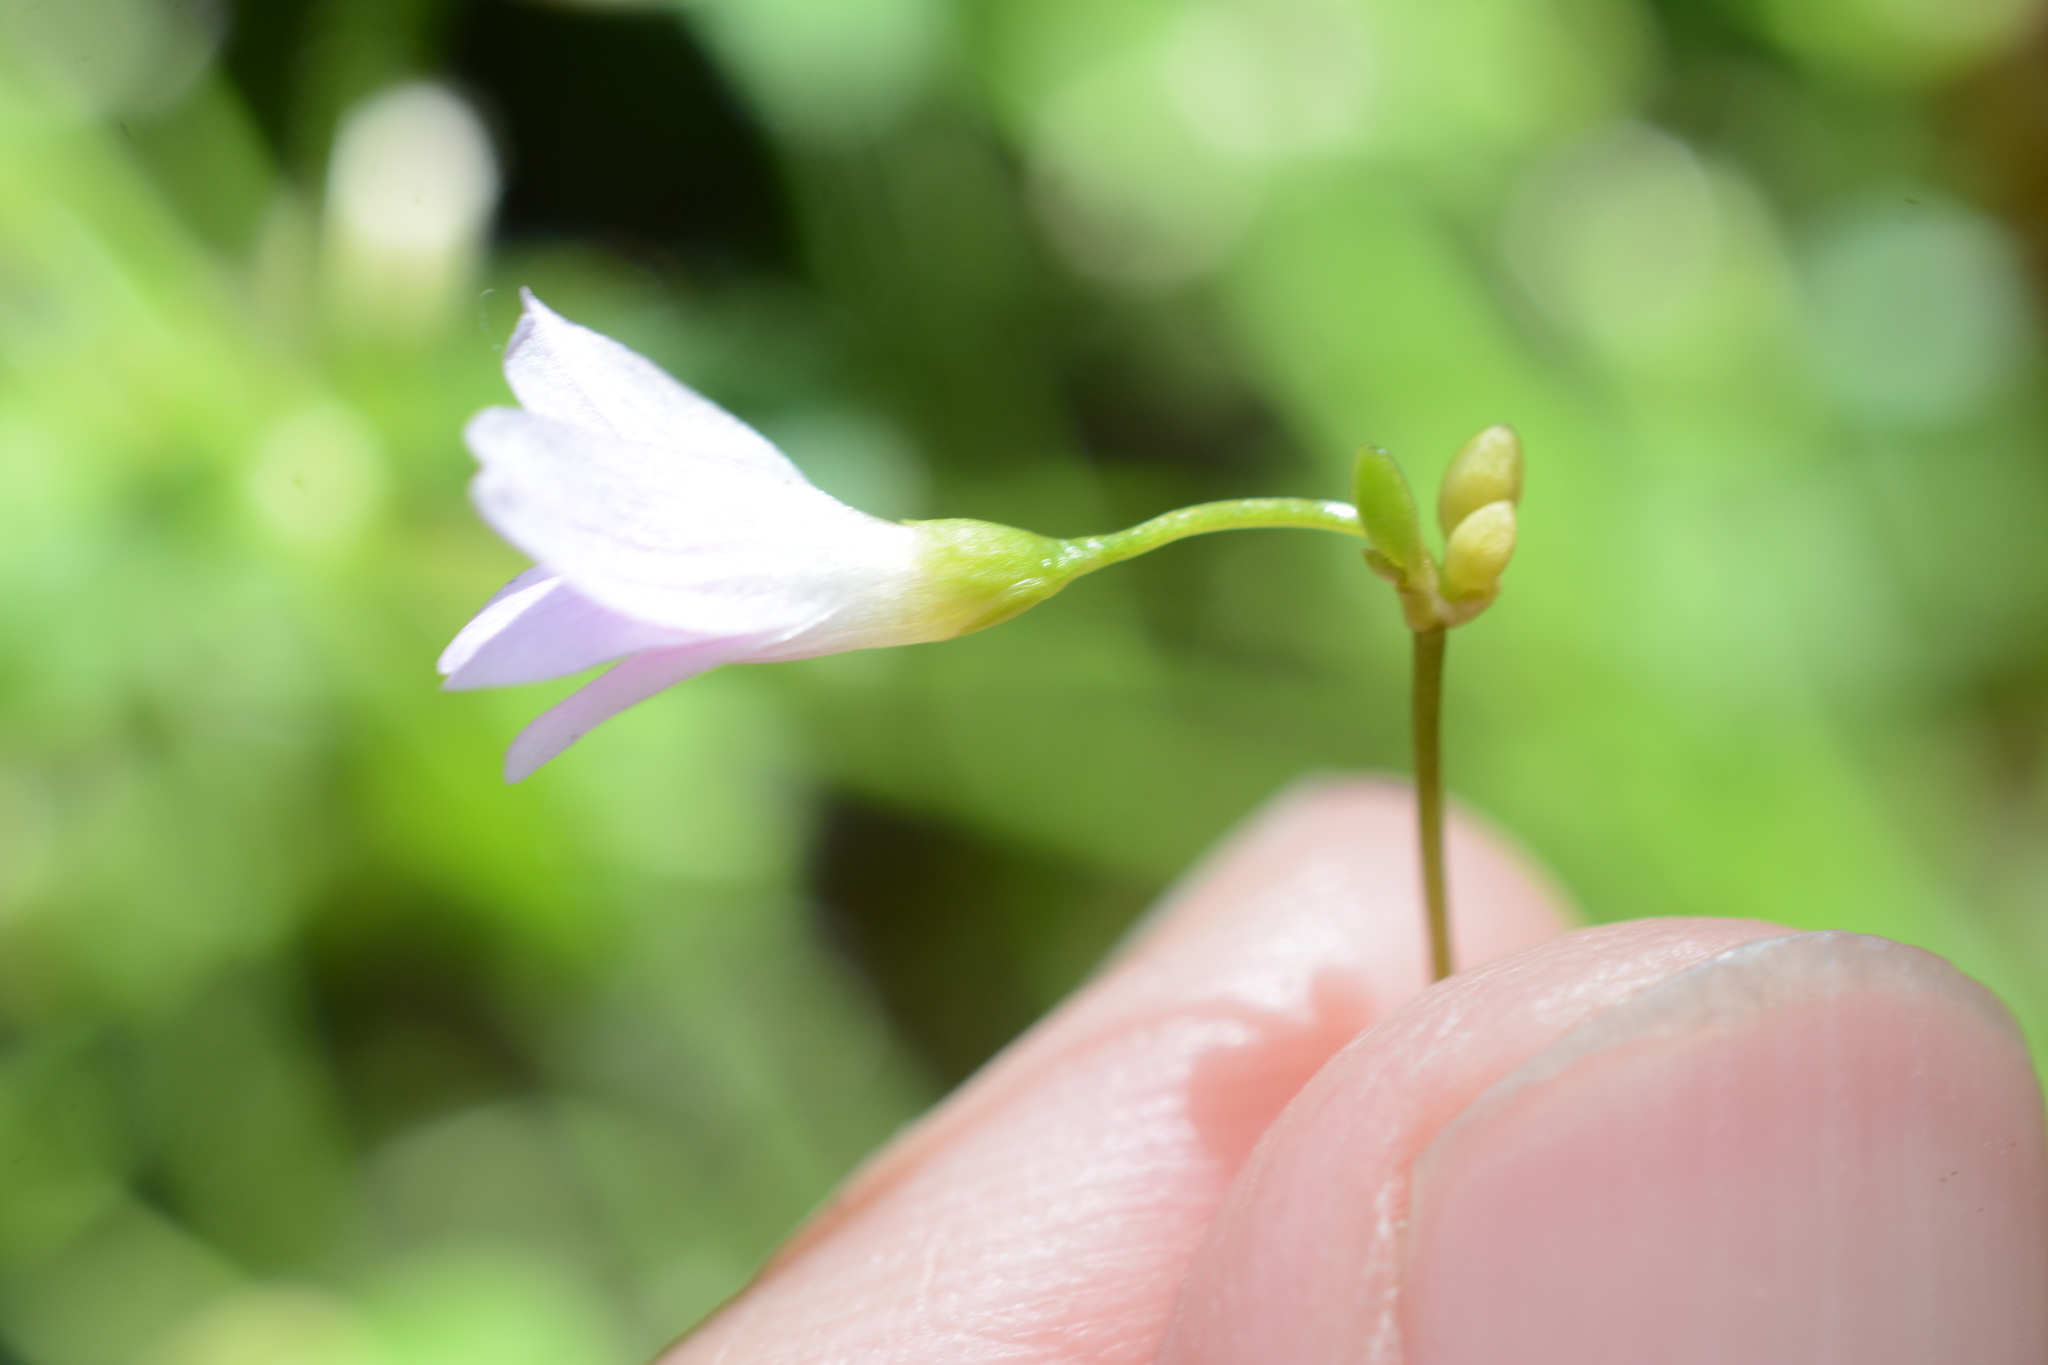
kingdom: Plantae
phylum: Tracheophyta
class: Magnoliopsida
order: Caryophyllales
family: Montiaceae
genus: Montia
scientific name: Montia parvifolia
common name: Small-leaved blinks
